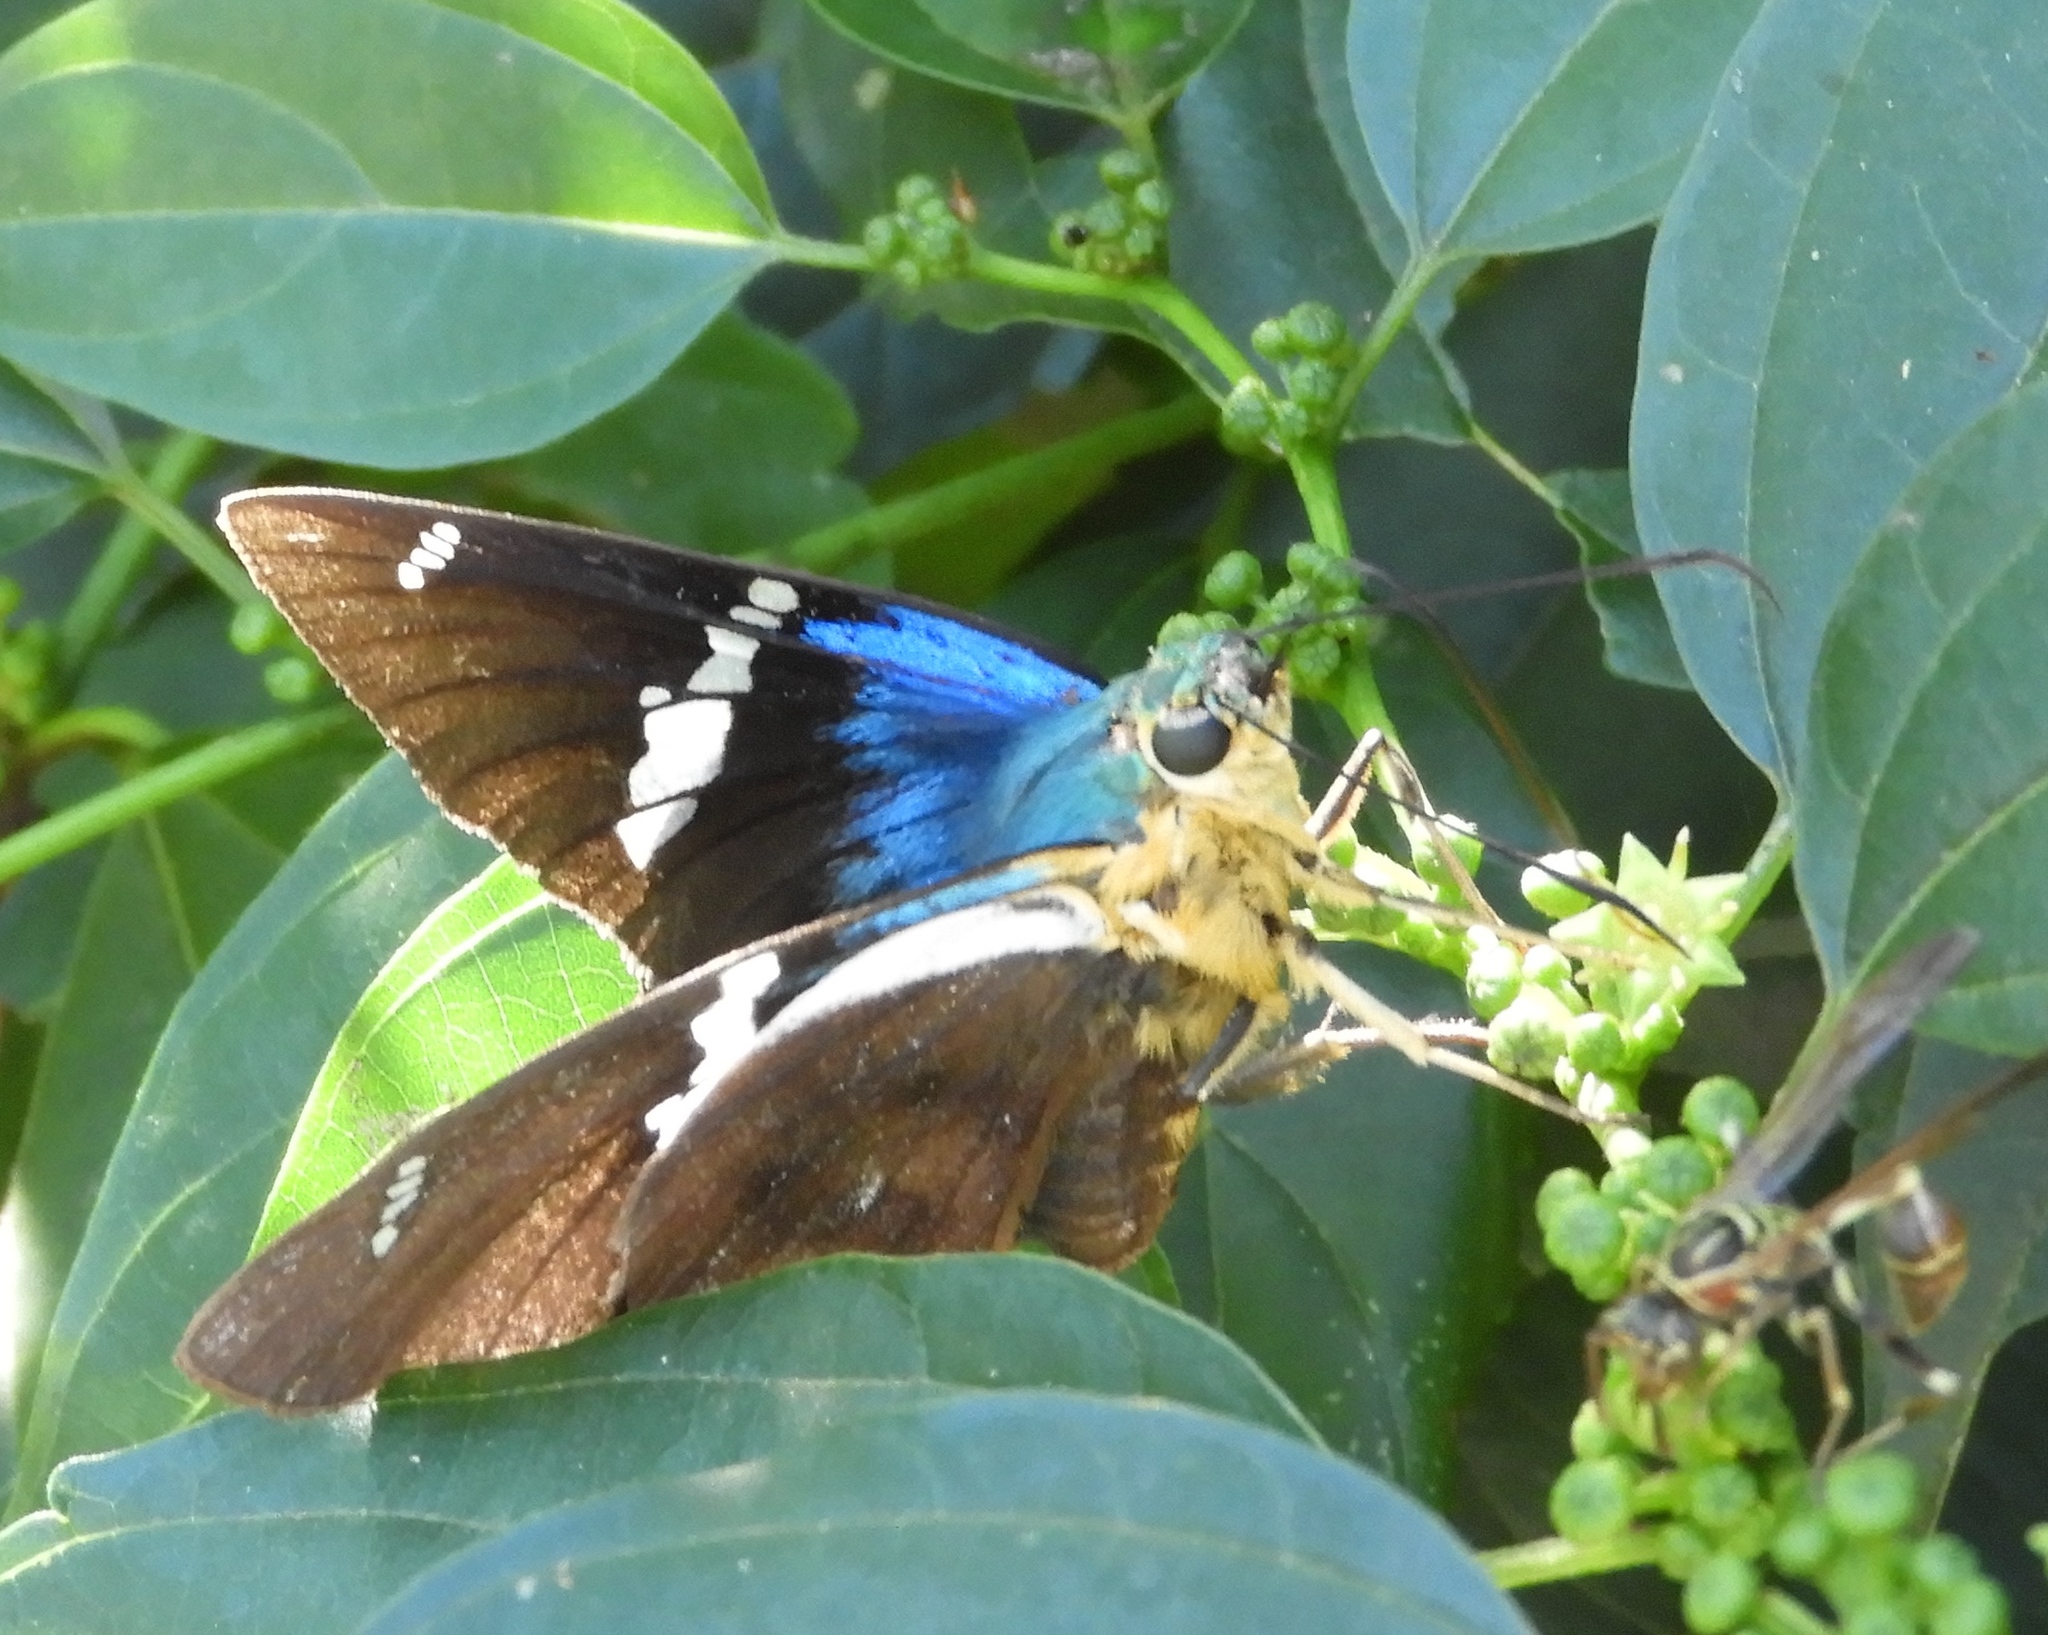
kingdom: Animalia
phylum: Arthropoda
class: Insecta
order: Lepidoptera
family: Hesperiidae
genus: Astraptes
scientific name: Astraptes fulgerator
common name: Two-barred flasher
